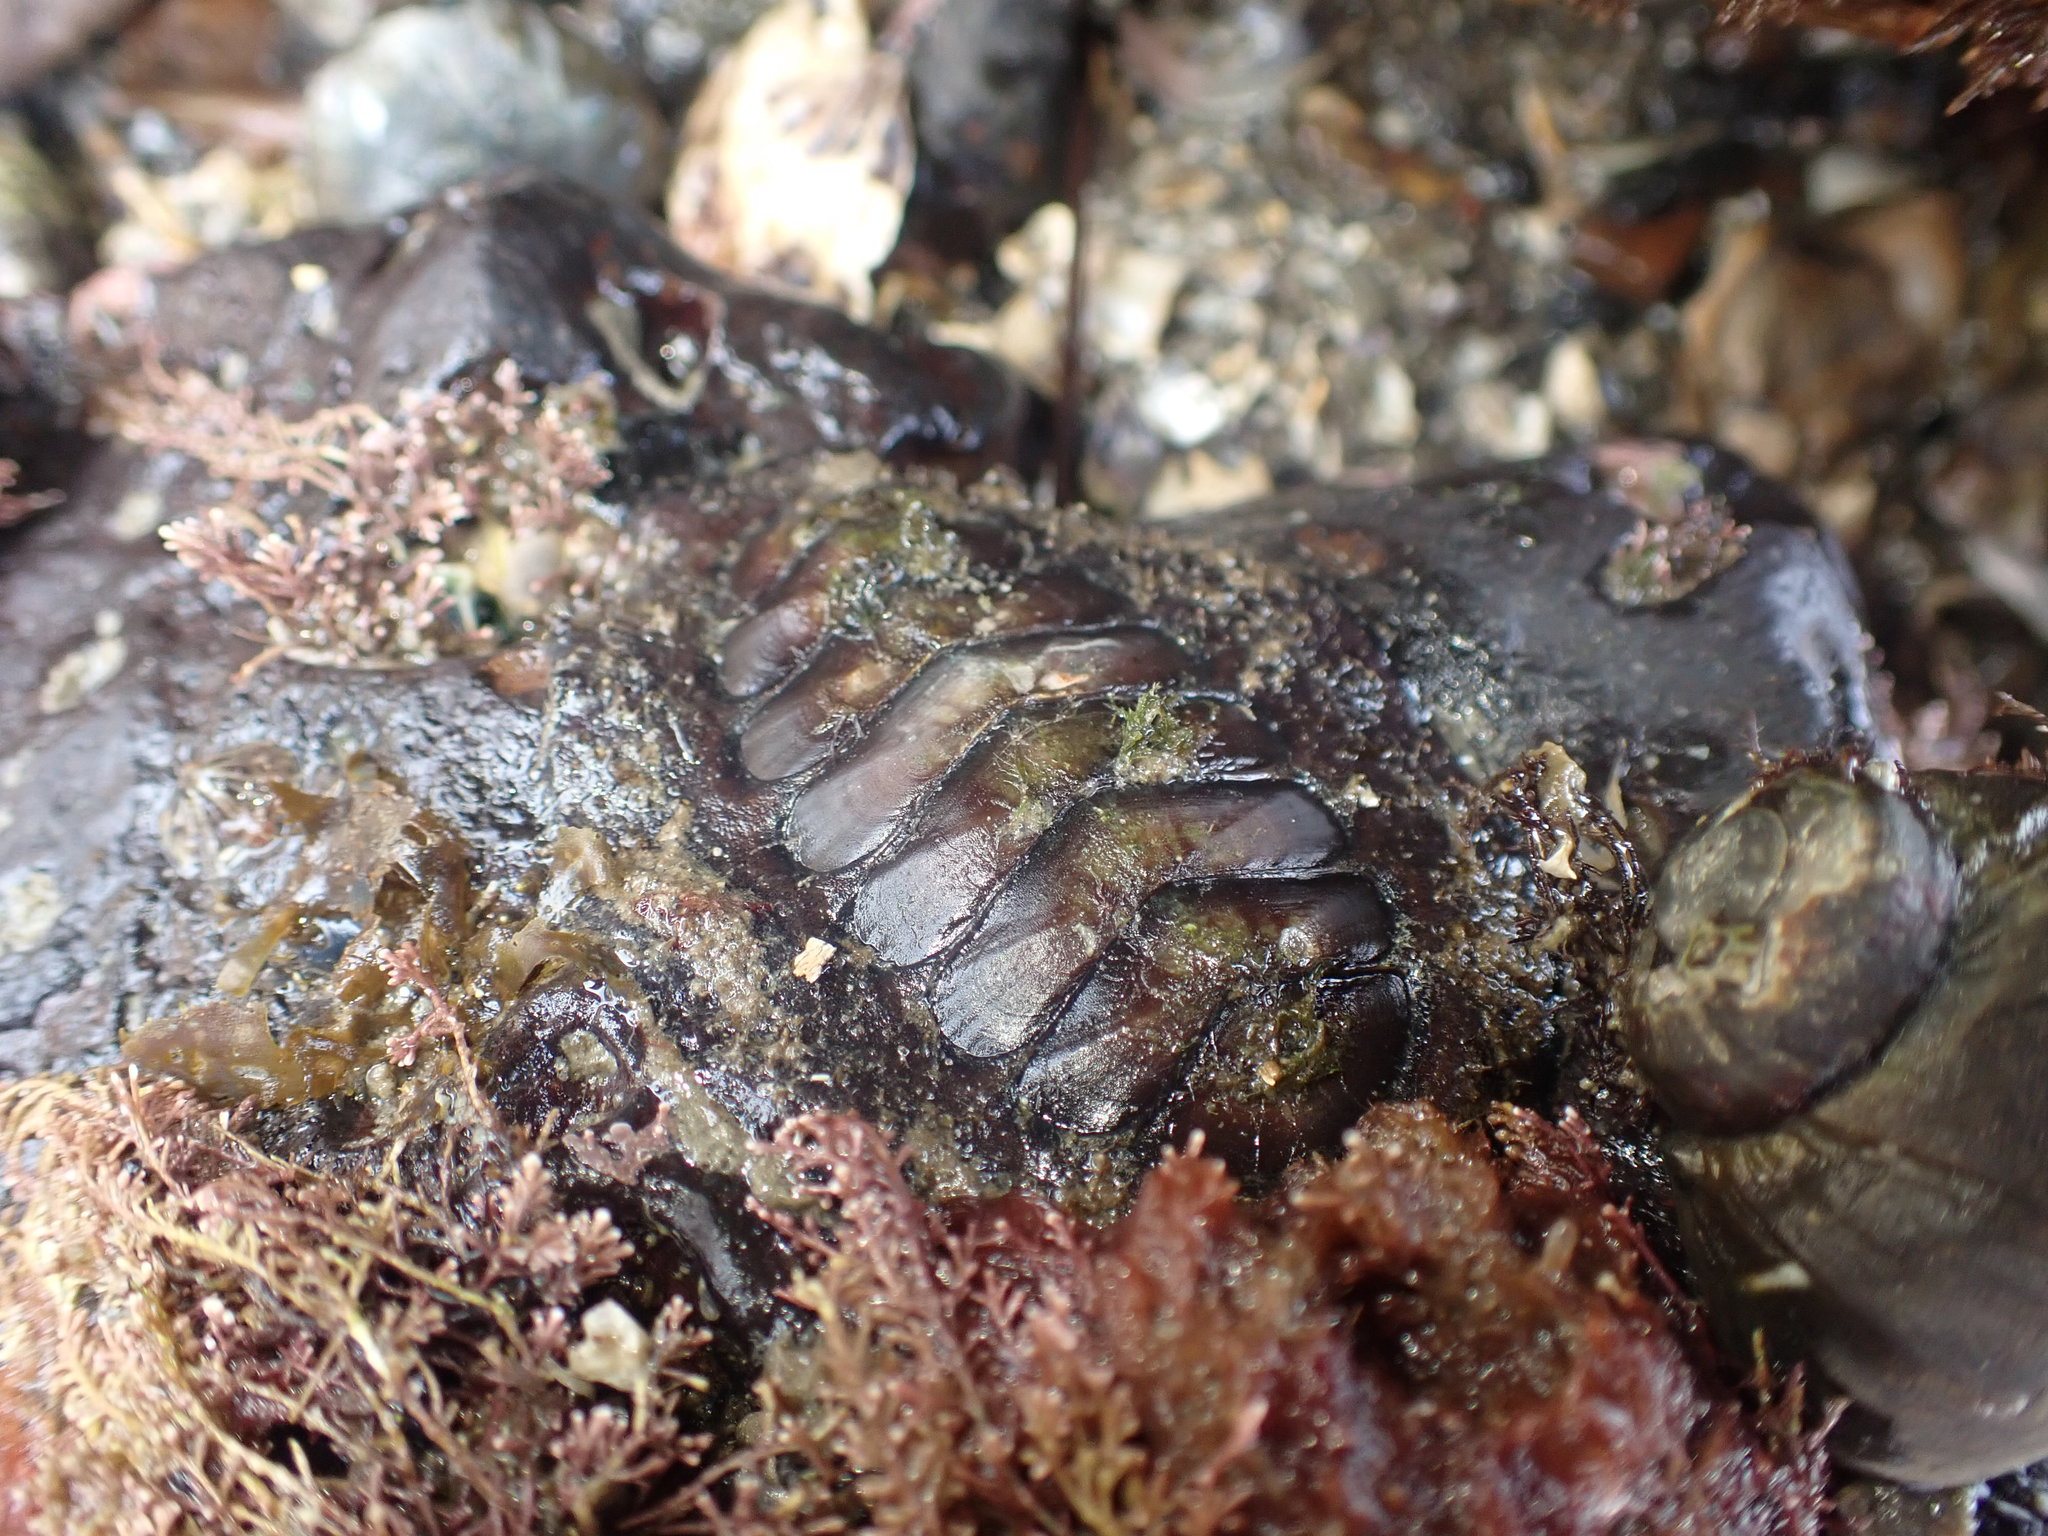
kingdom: Animalia
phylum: Mollusca
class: Polyplacophora
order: Callochitonida
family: Callochitonidae
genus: Eudoxochiton
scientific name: Eudoxochiton nobilis
